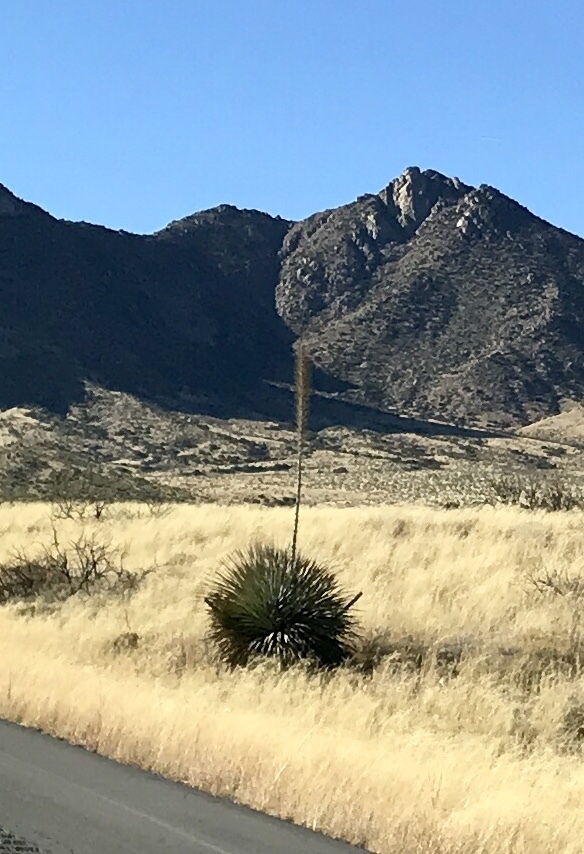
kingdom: Plantae
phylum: Tracheophyta
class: Liliopsida
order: Asparagales
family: Asparagaceae
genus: Dasylirion
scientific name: Dasylirion wheeleri
